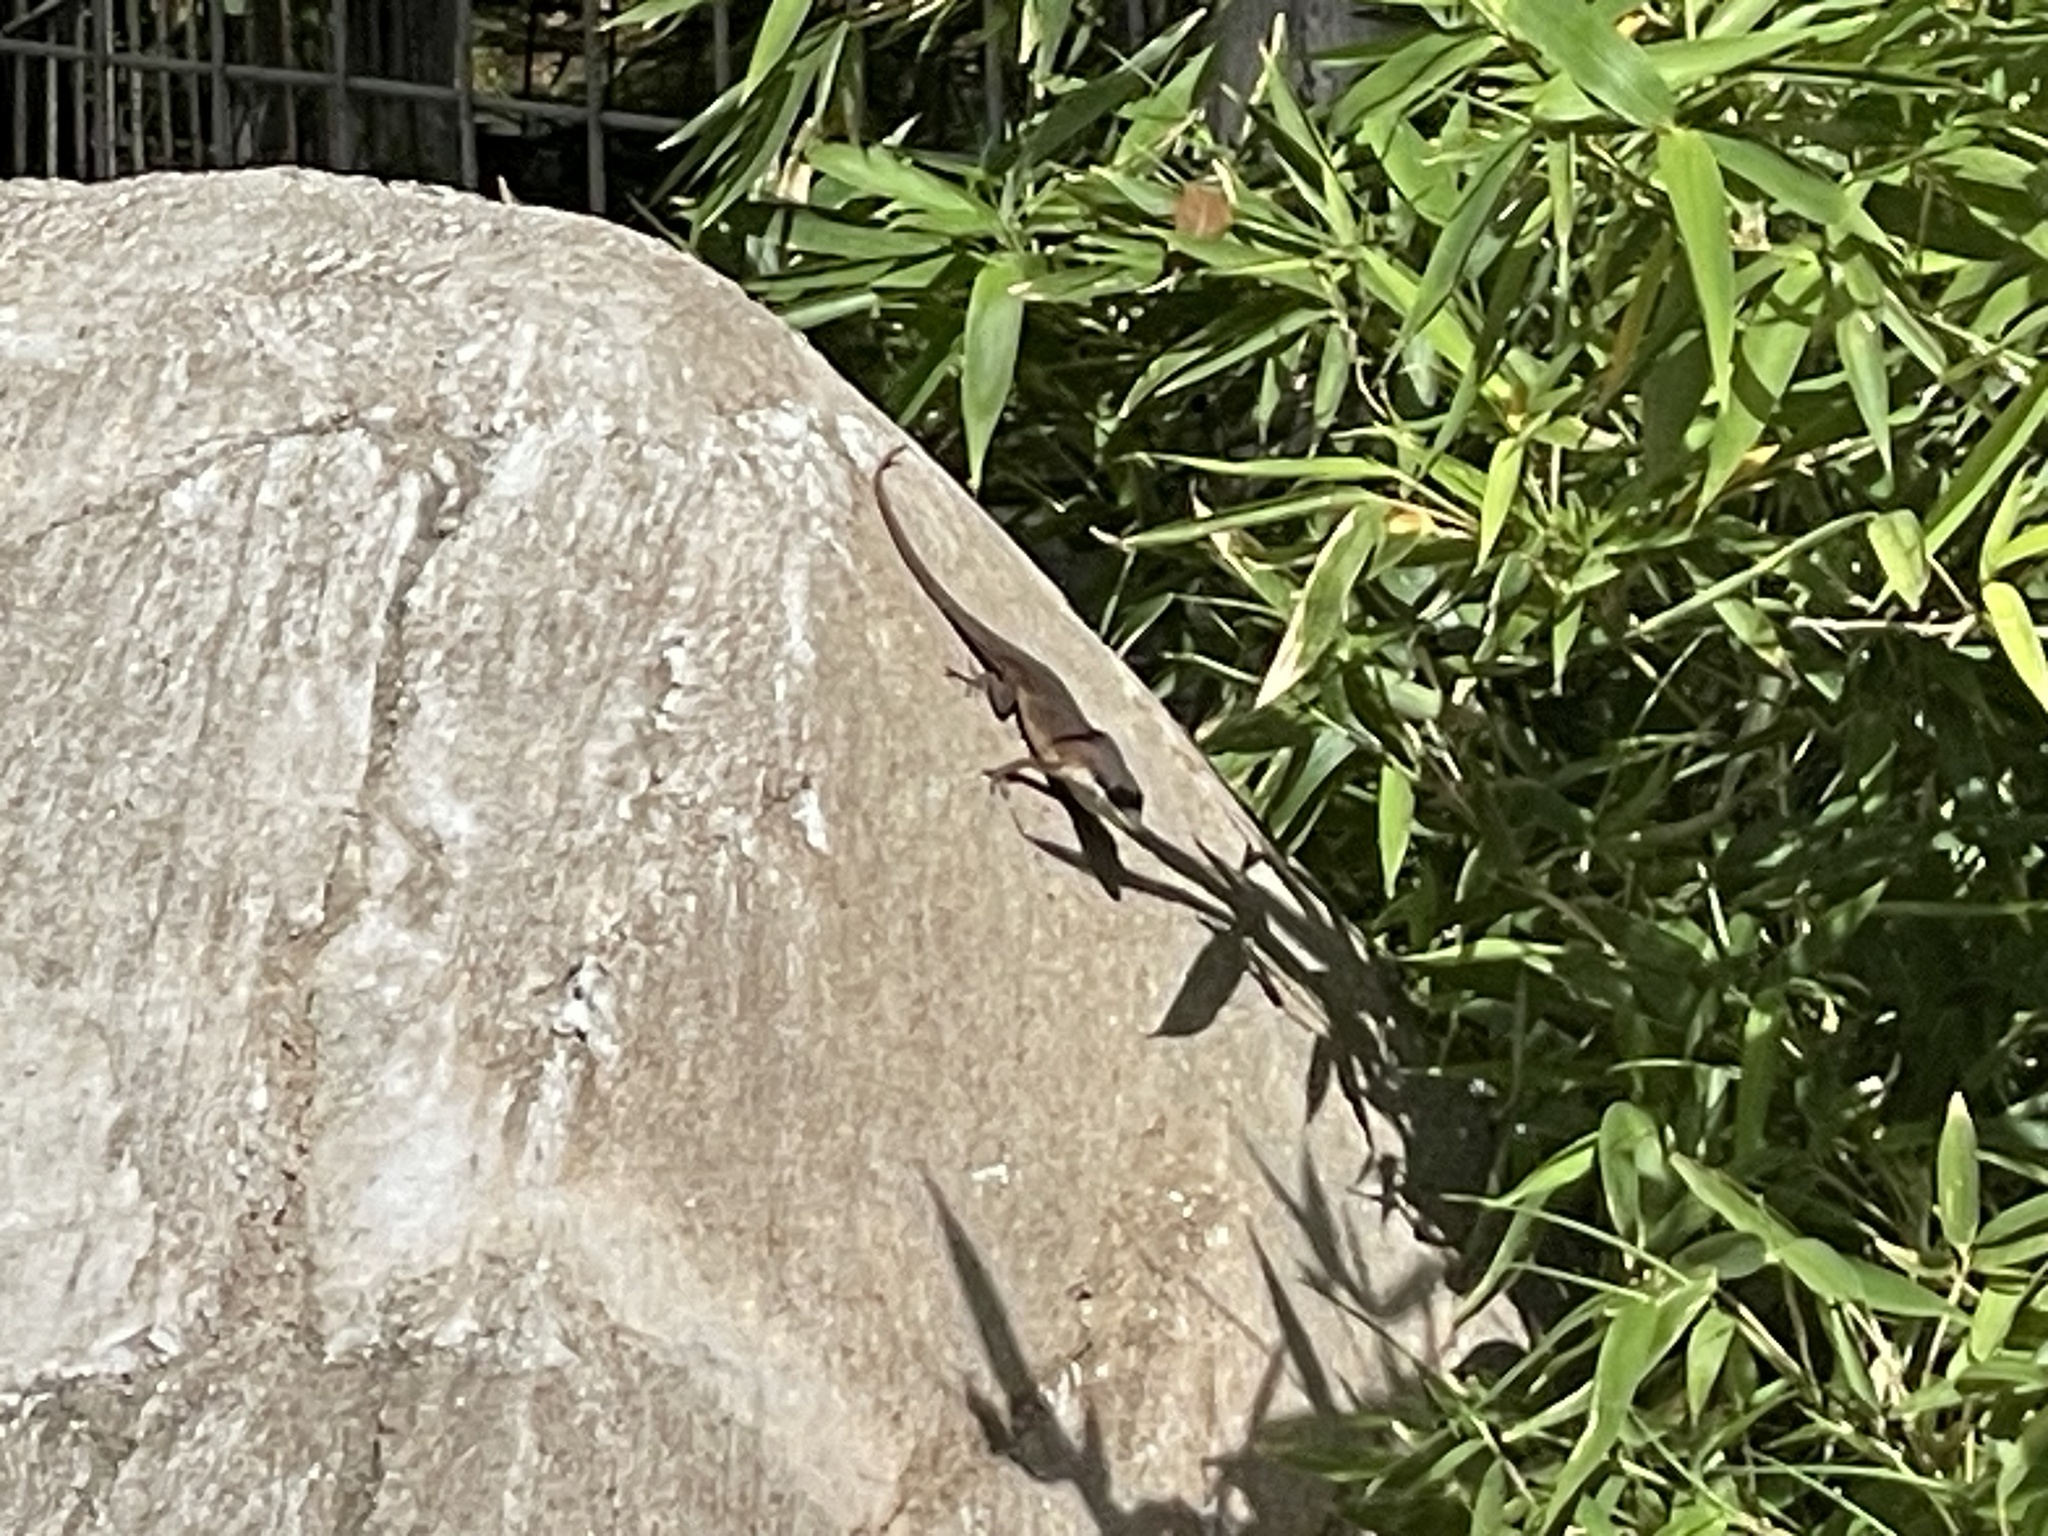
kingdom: Animalia
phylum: Chordata
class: Squamata
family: Dactyloidae
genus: Anolis
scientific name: Anolis carolinensis
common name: Green anole
